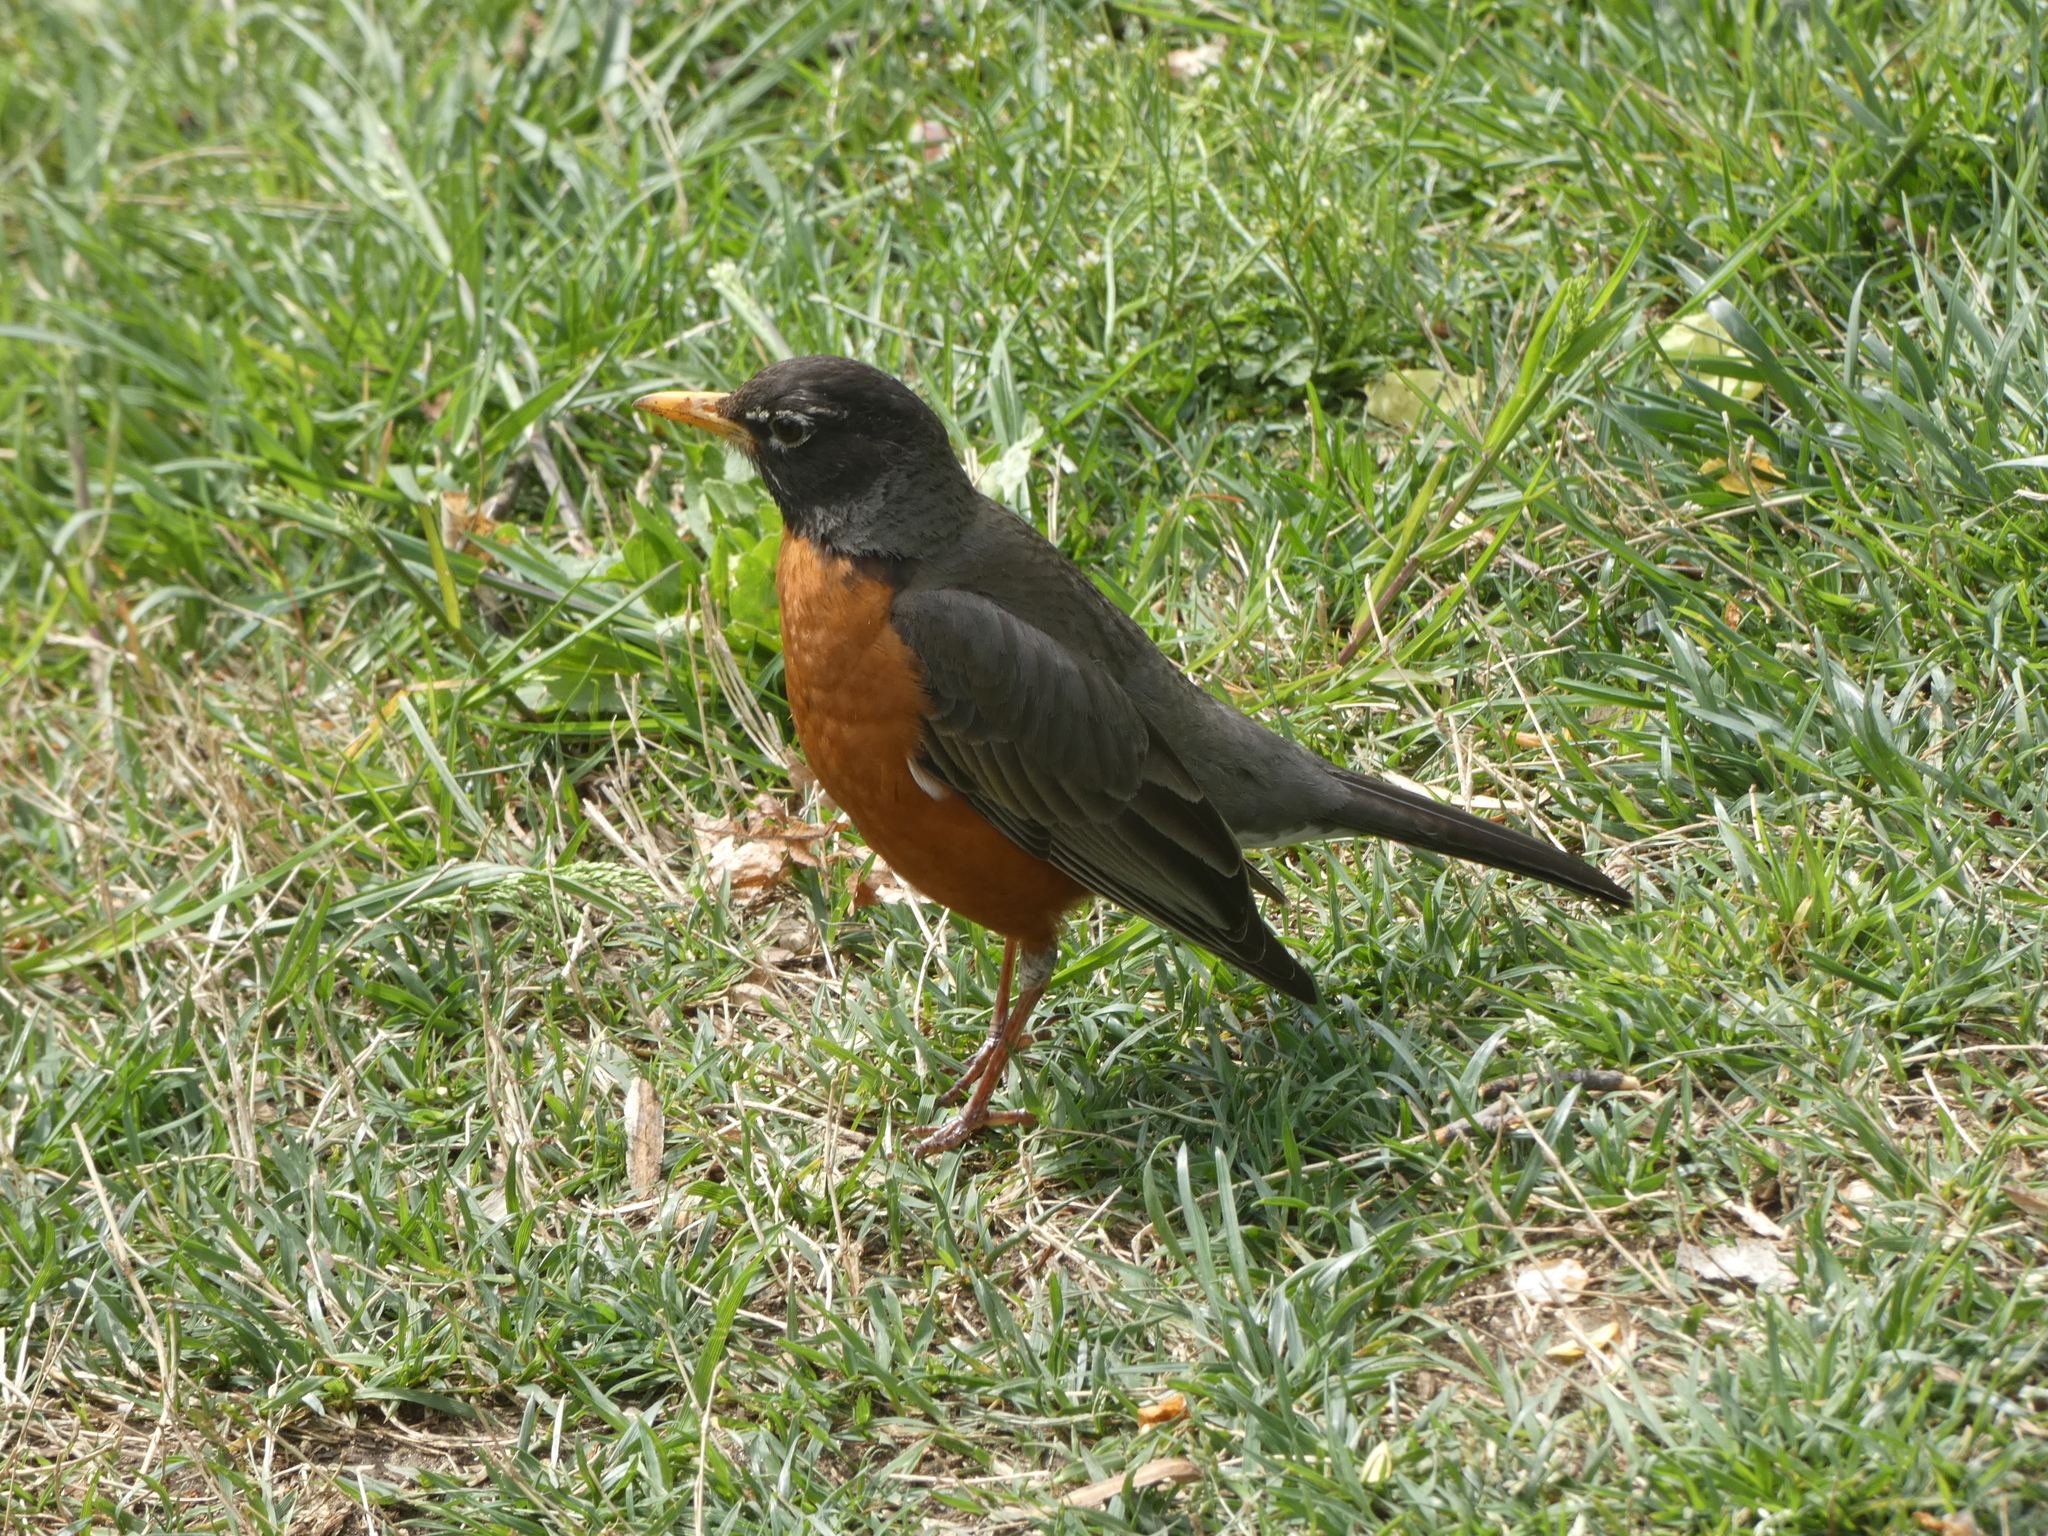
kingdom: Animalia
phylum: Chordata
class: Aves
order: Passeriformes
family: Turdidae
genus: Turdus
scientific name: Turdus migratorius
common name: American robin
